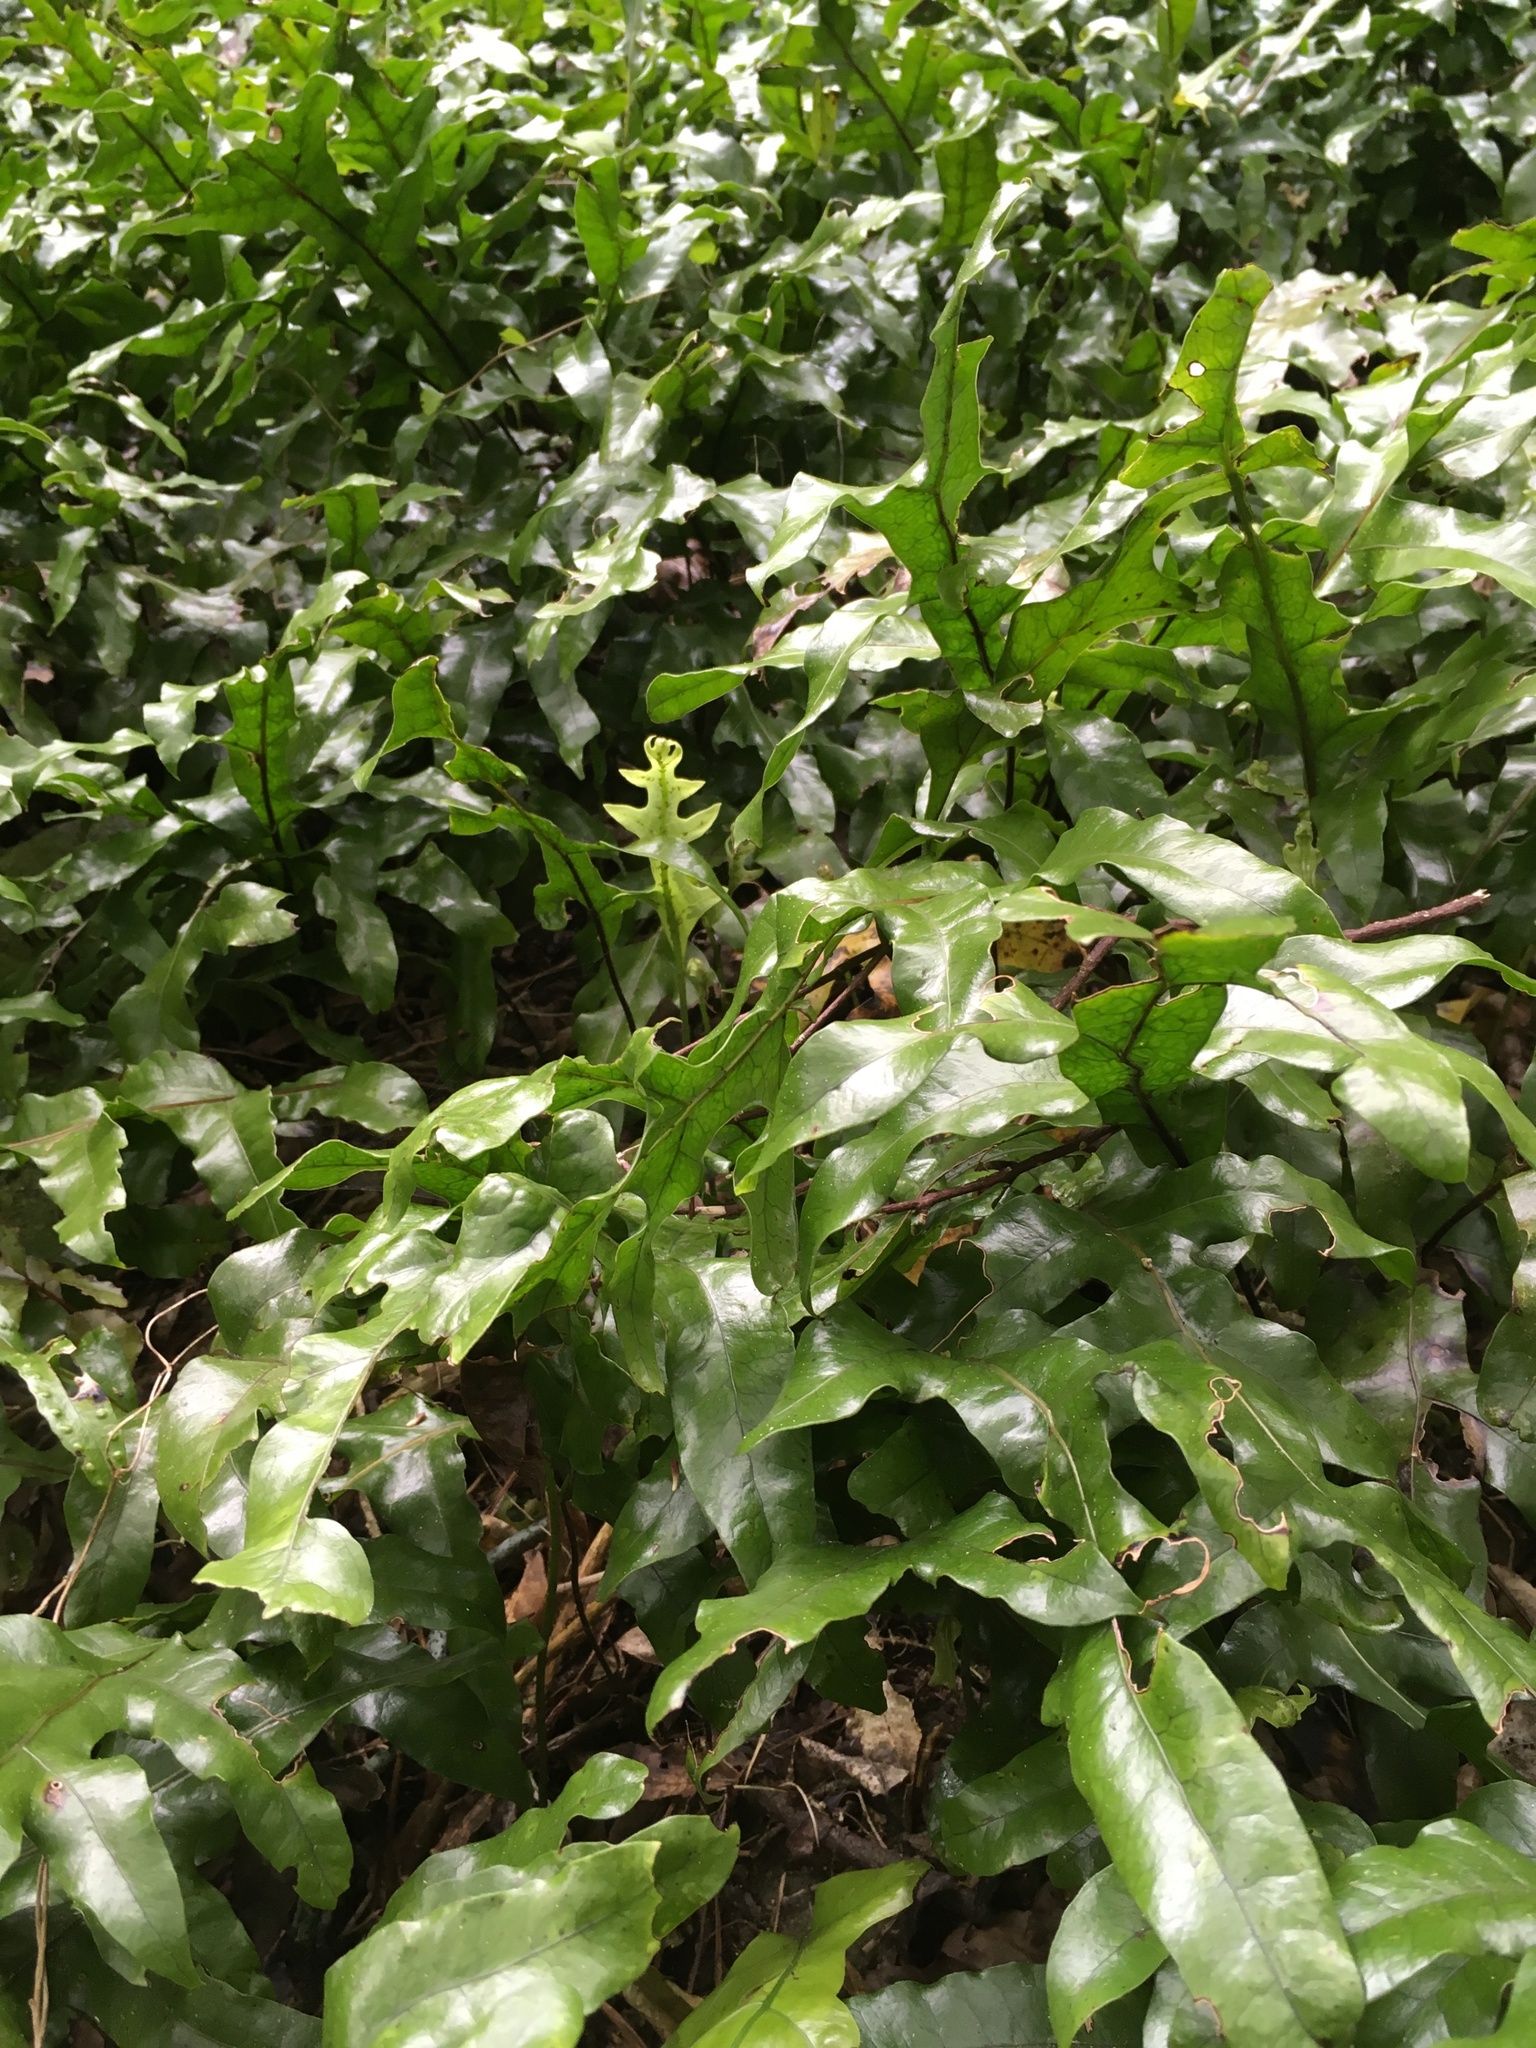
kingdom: Plantae
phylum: Tracheophyta
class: Polypodiopsida
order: Polypodiales
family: Polypodiaceae
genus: Lecanopteris
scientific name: Lecanopteris pustulata
